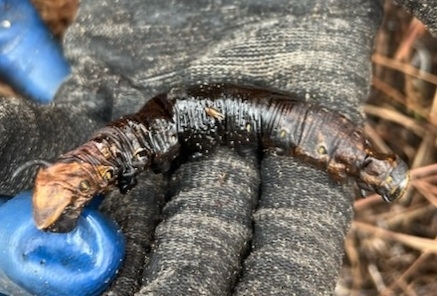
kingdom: Animalia
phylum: Arthropoda
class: Insecta
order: Lepidoptera
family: Sphingidae
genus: Agrius
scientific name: Agrius cingulata
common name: Pink-spotted hawkmoth
